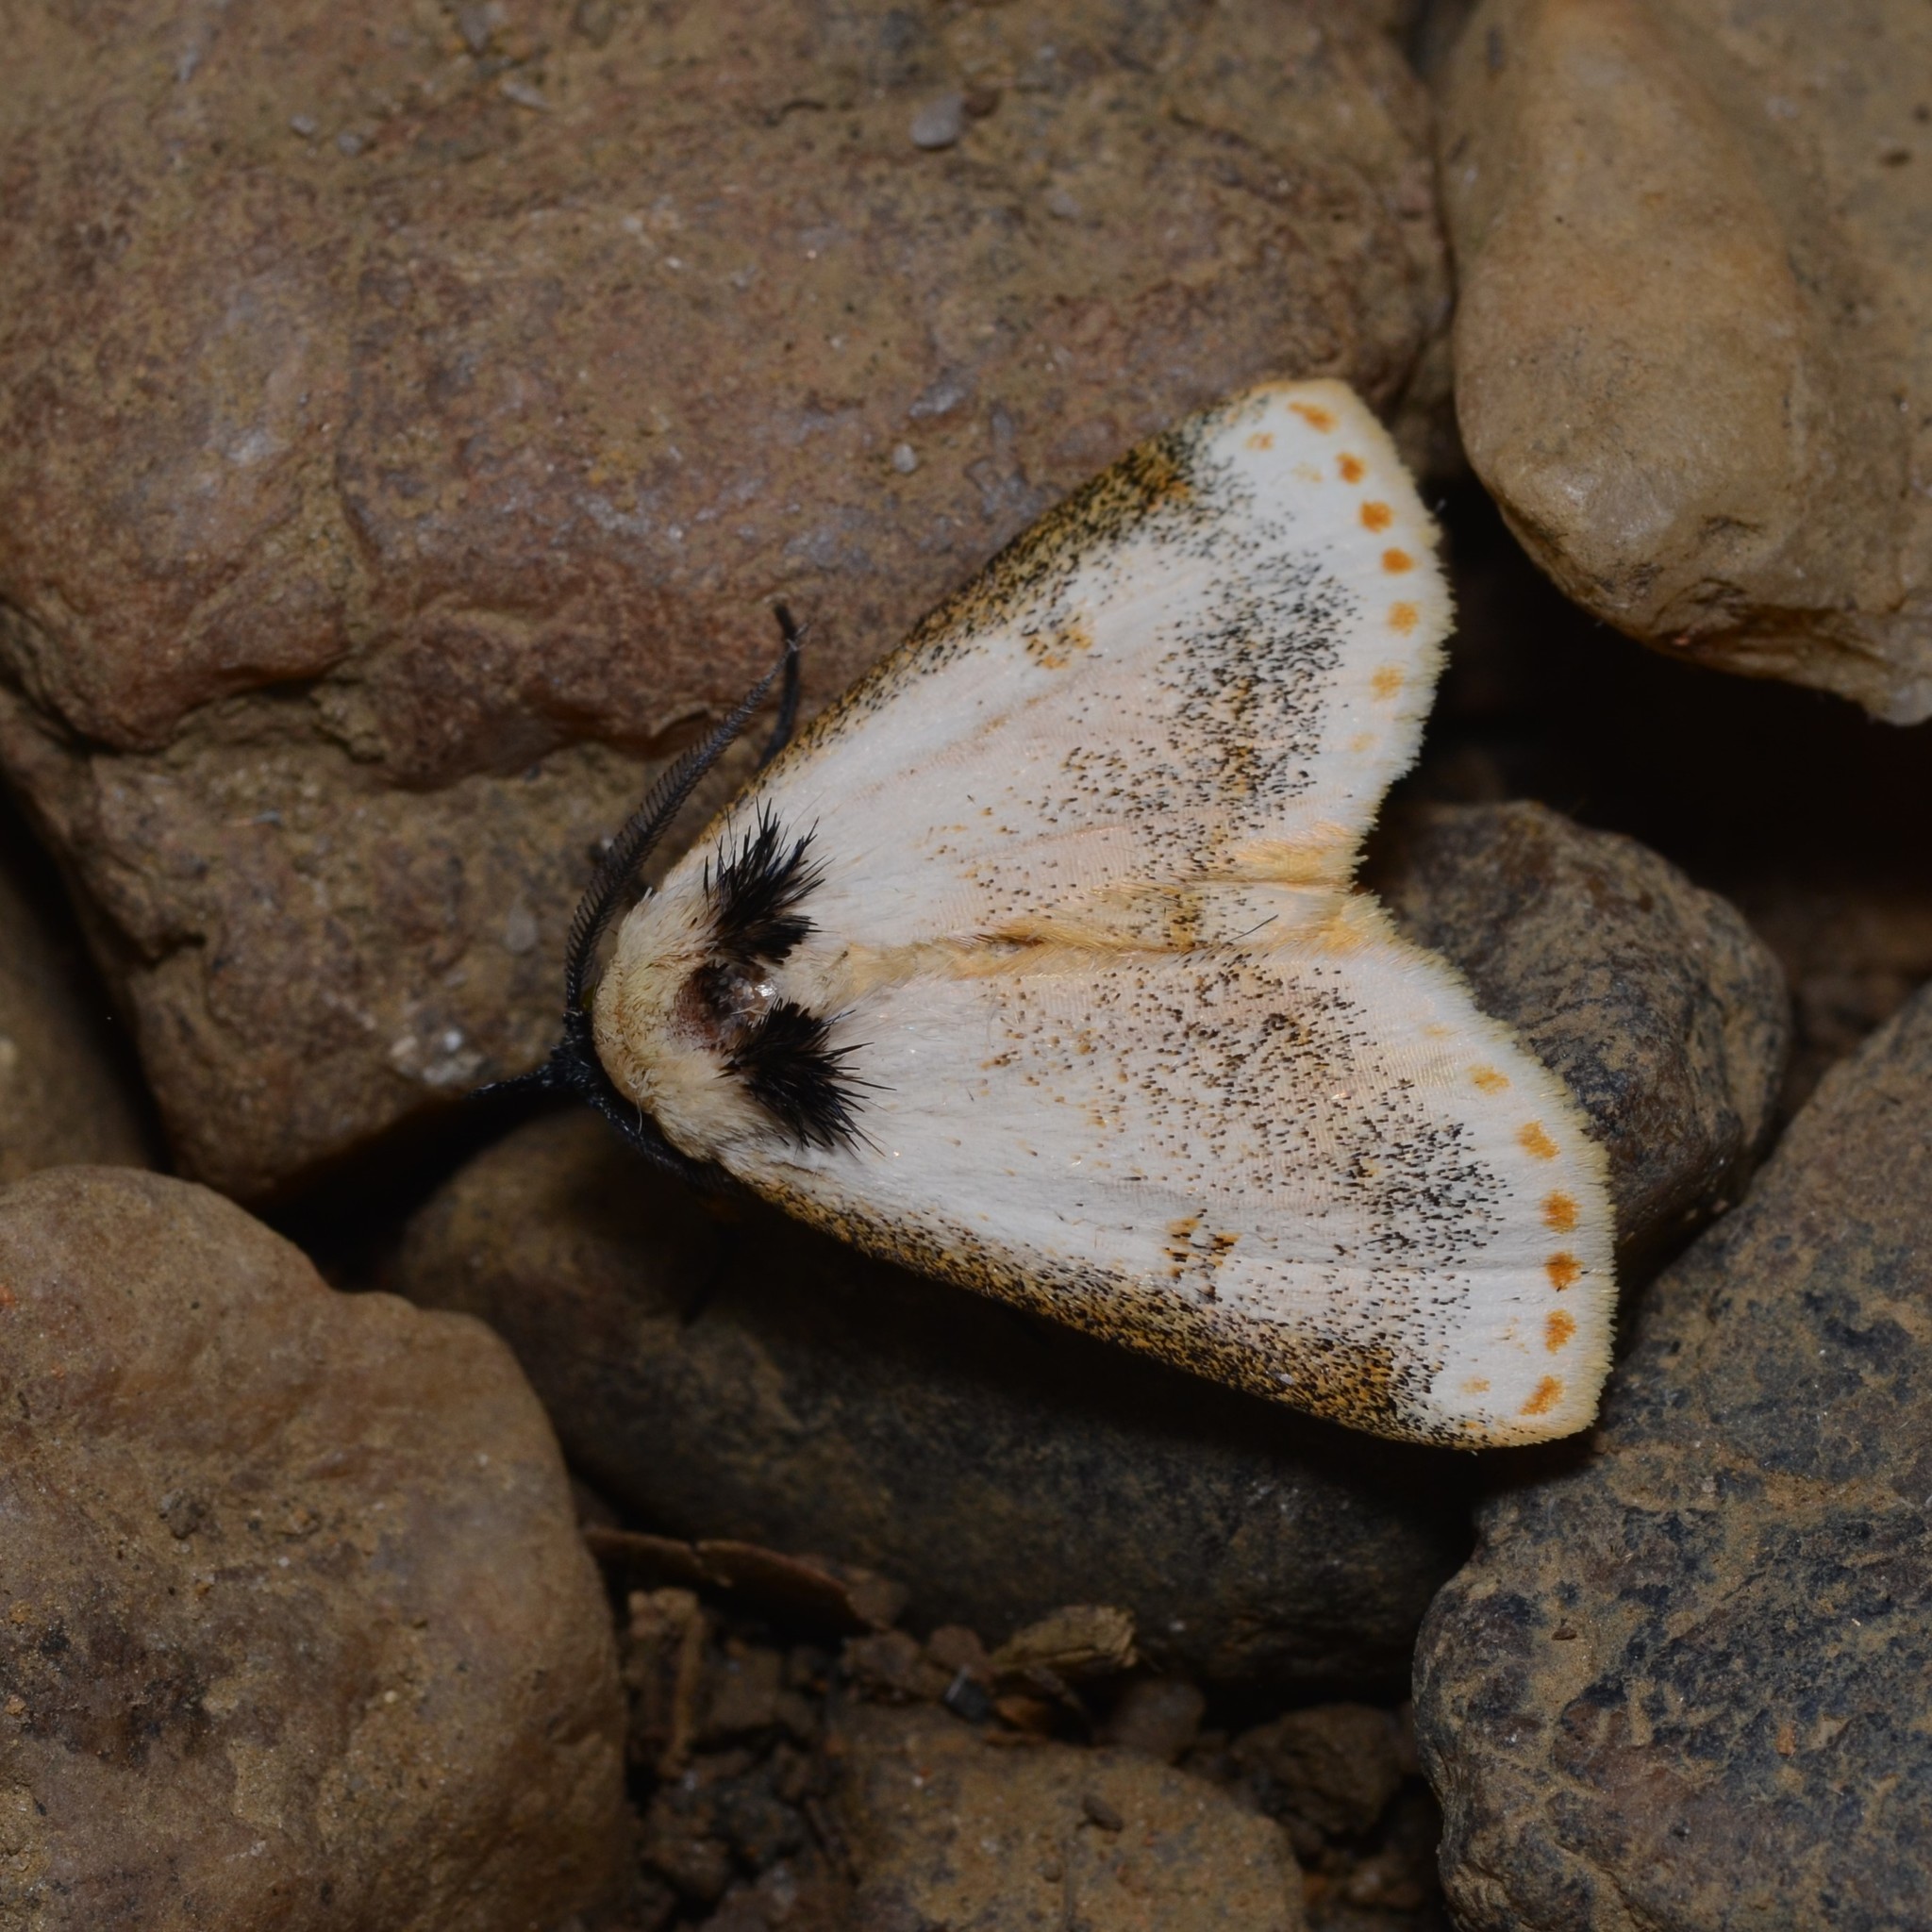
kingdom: Animalia
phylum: Arthropoda
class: Insecta
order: Lepidoptera
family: Erebidae
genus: Hypsiforma
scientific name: Hypsiforma lambertoni
